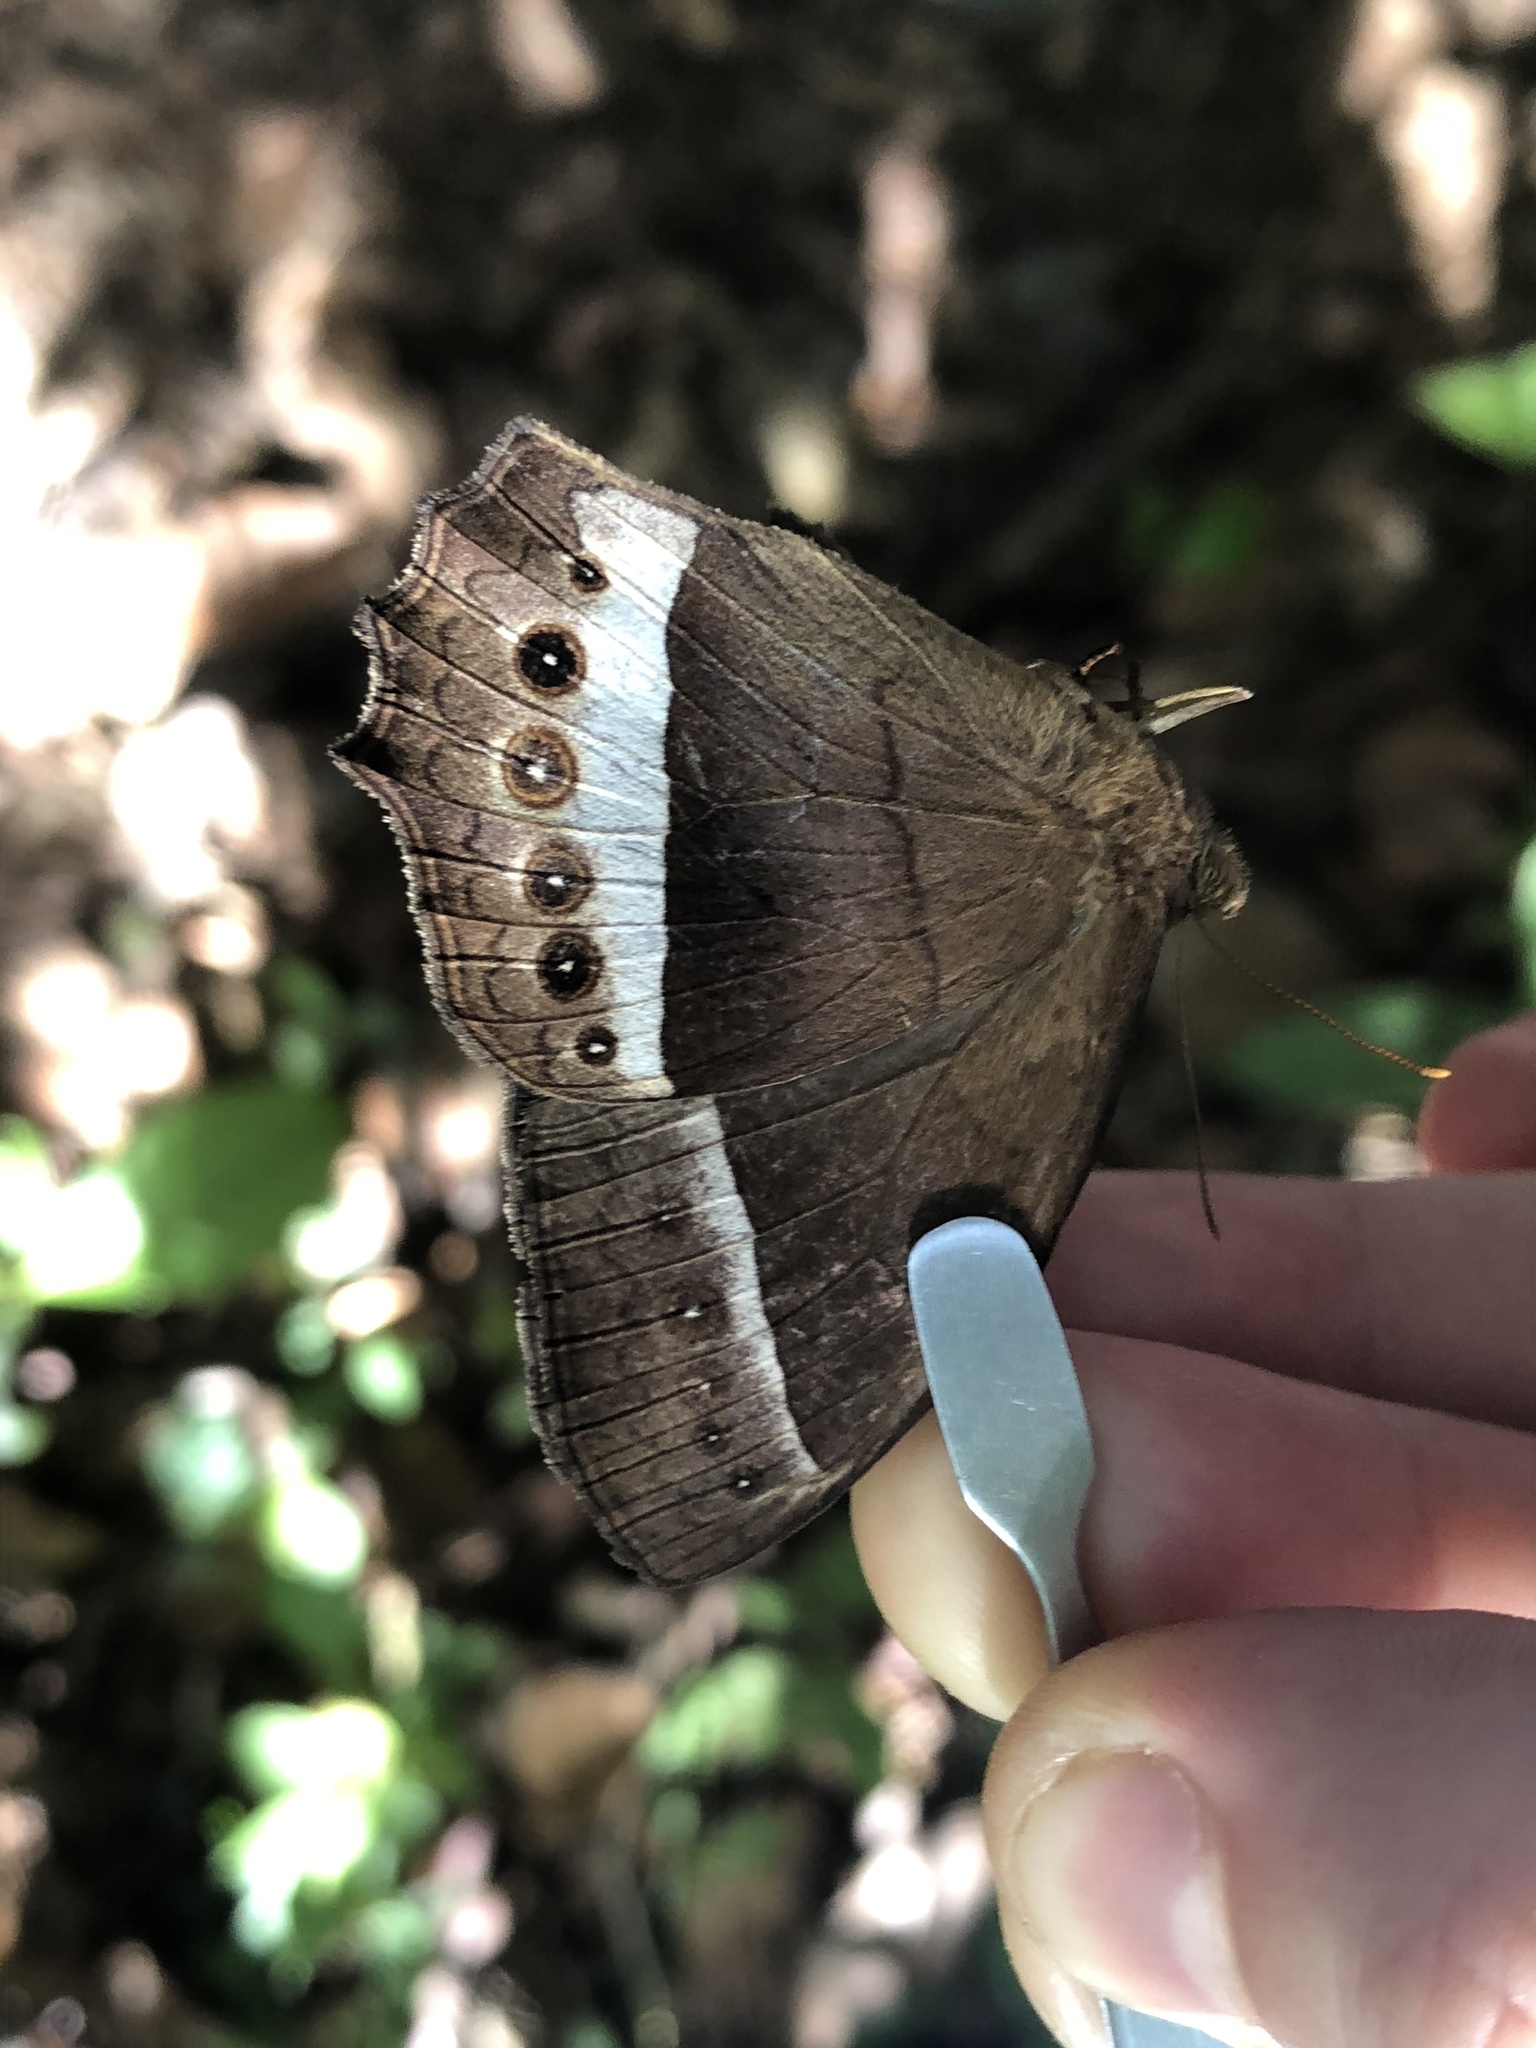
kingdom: Animalia
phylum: Arthropoda
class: Insecta
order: Lepidoptera
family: Nymphalidae
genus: Taygetis
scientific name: Taygetis sylvia
